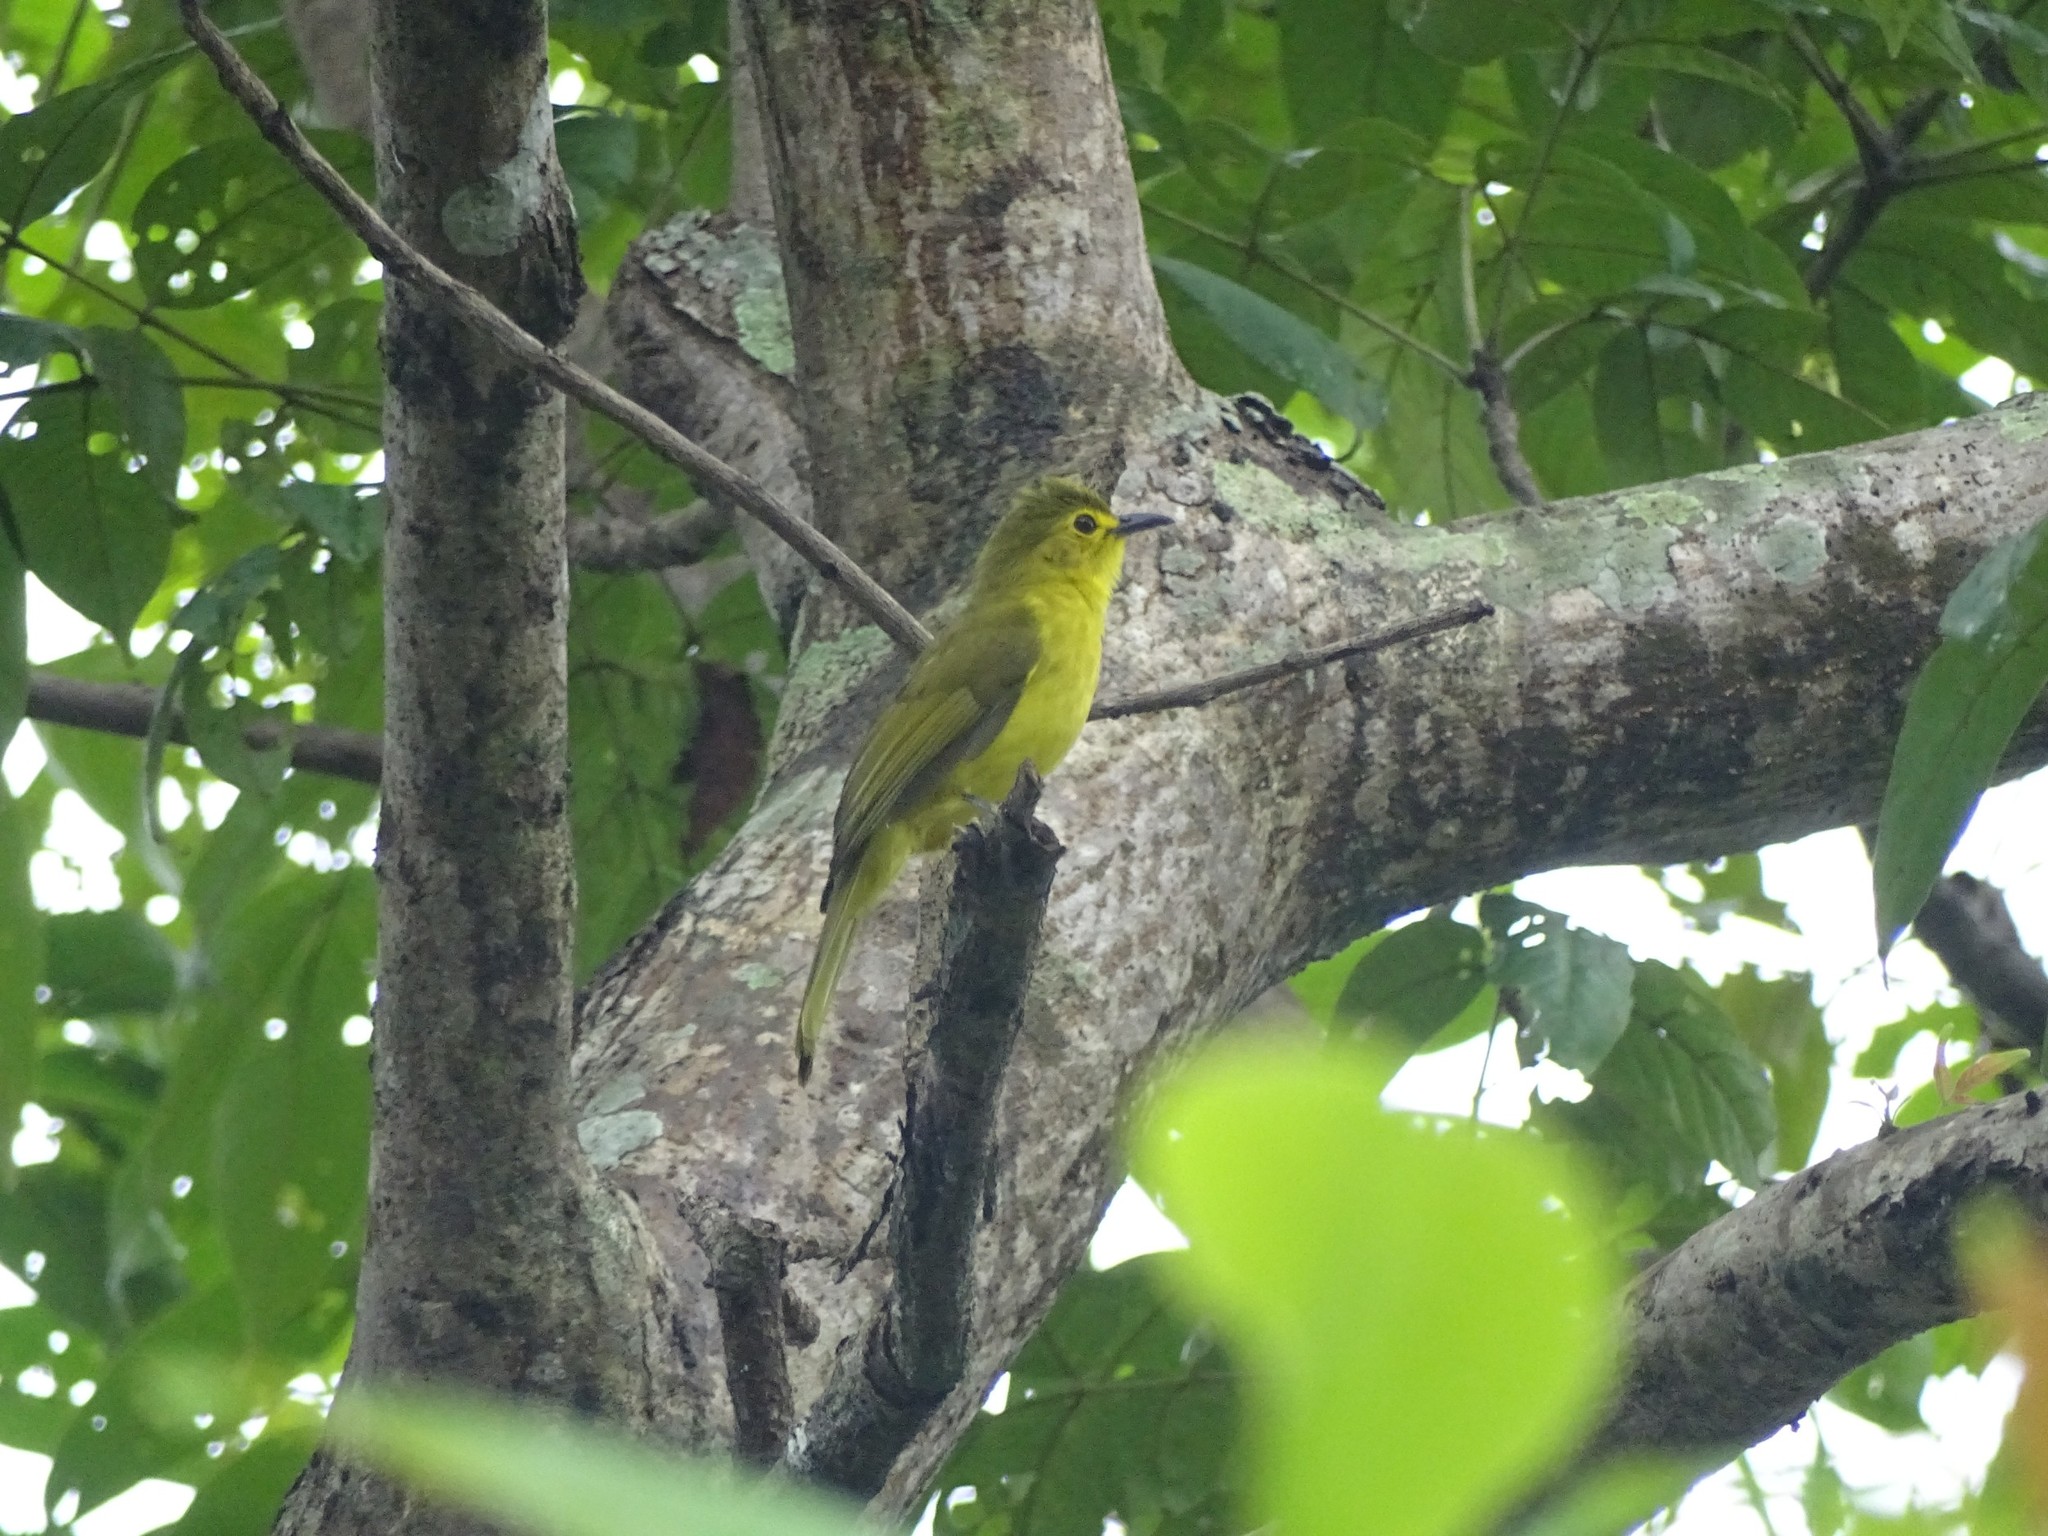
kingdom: Animalia
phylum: Chordata
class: Aves
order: Passeriformes
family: Pycnonotidae
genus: Acritillas
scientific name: Acritillas indica
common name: Yellow-browed bulbul
